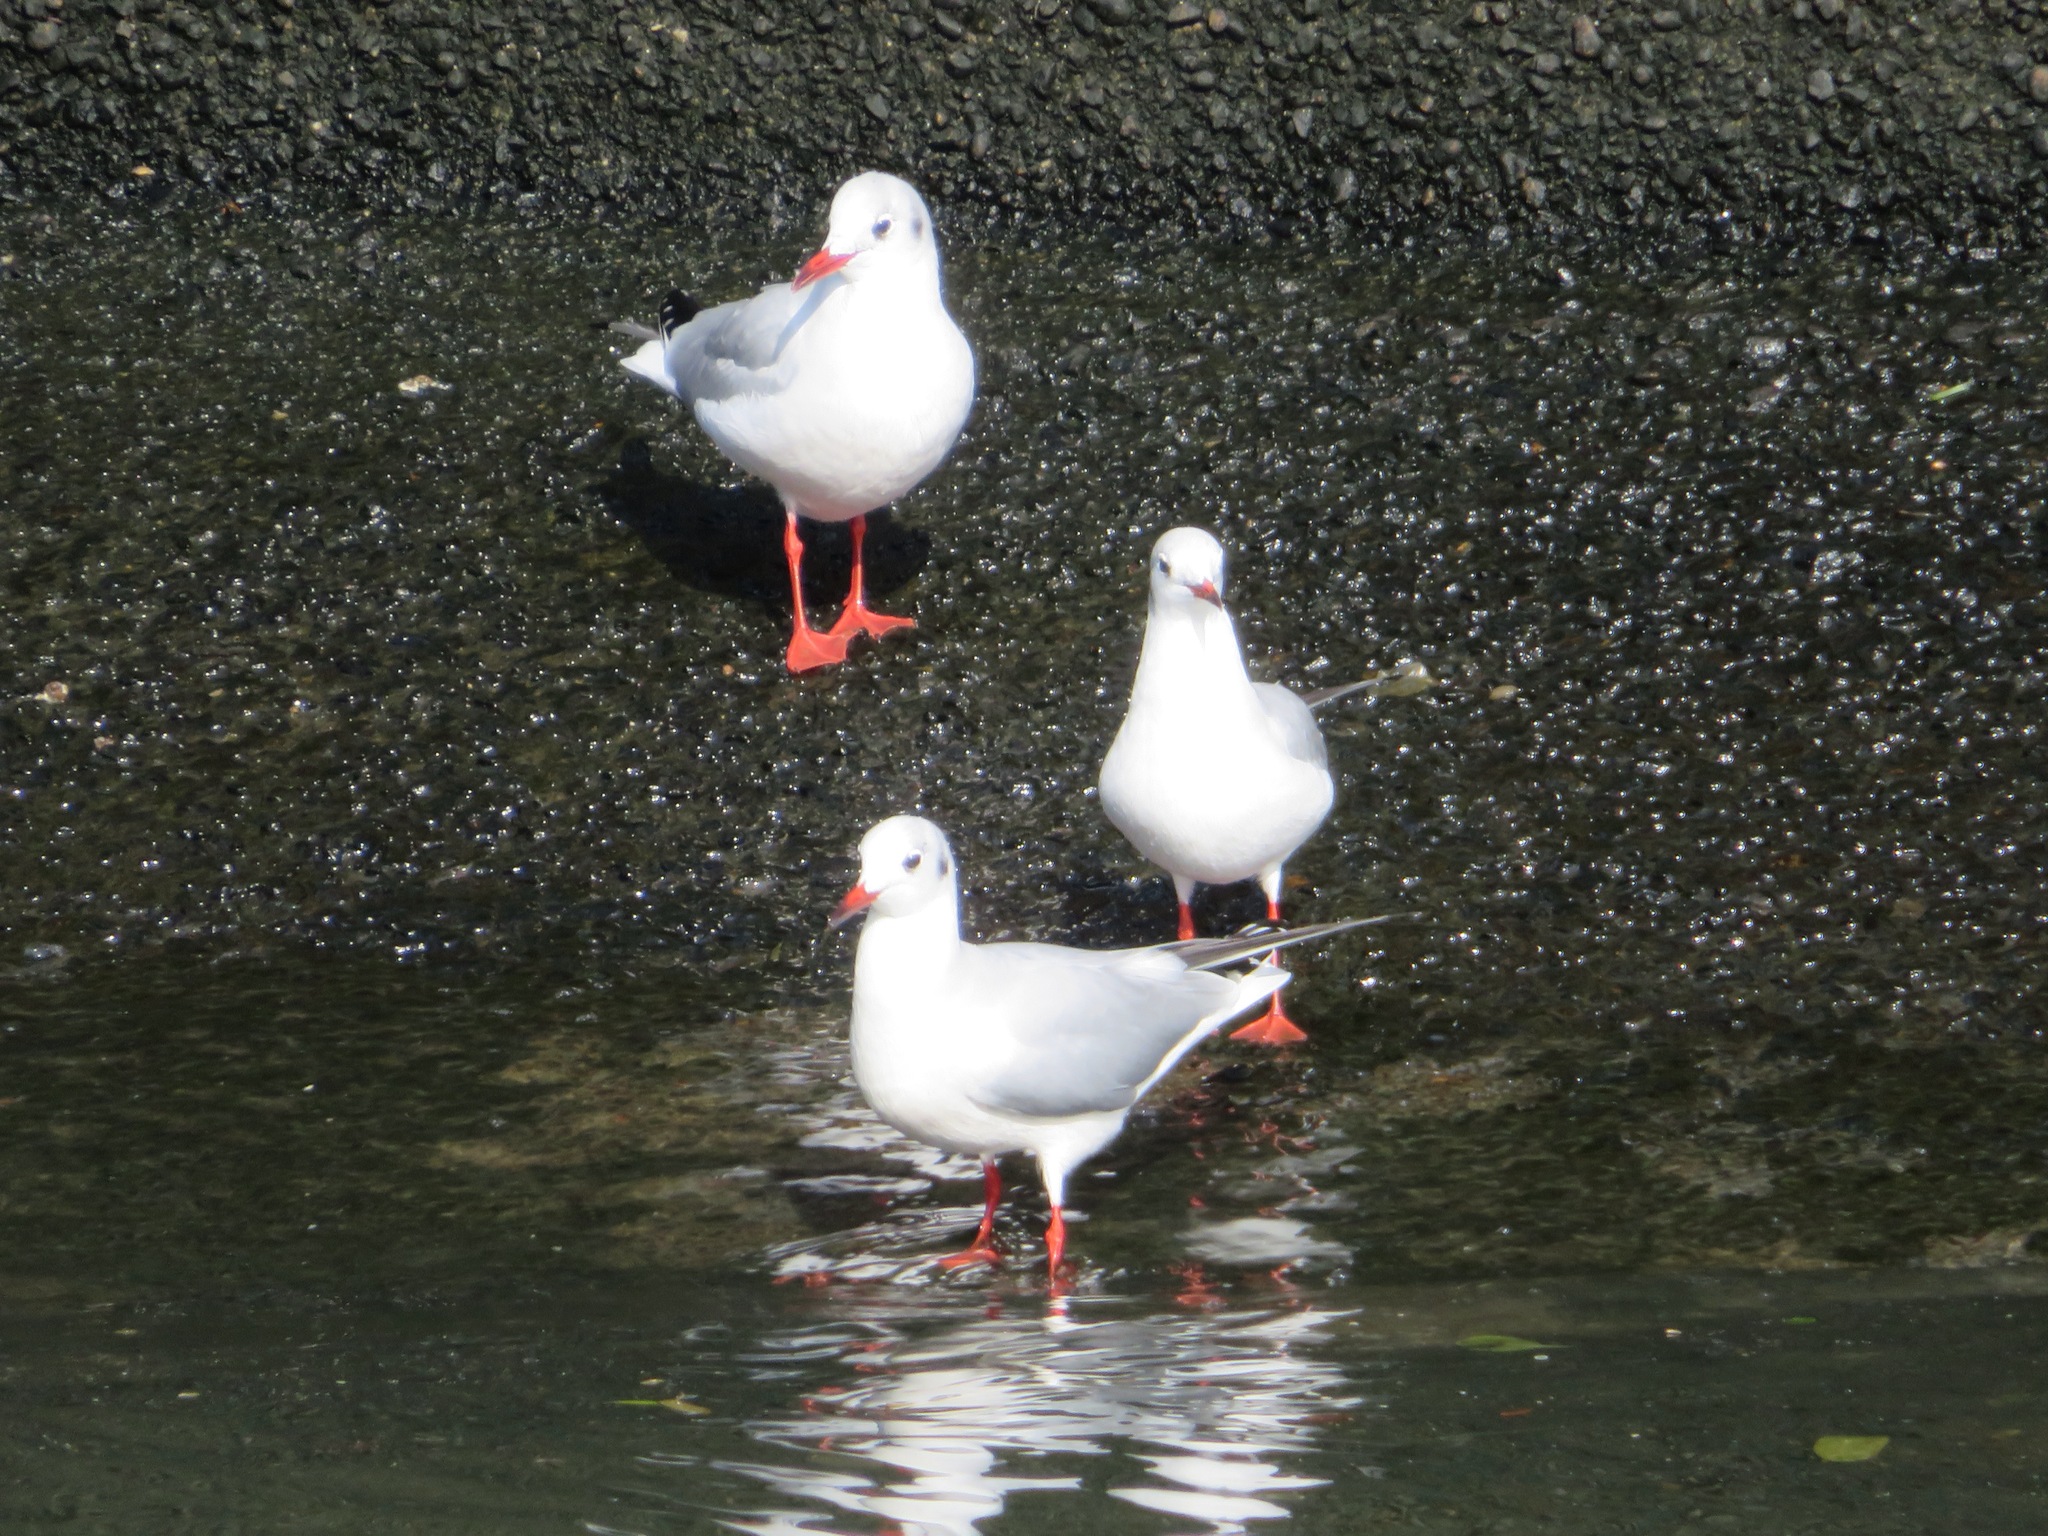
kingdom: Animalia
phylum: Chordata
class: Aves
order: Charadriiformes
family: Laridae
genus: Chroicocephalus
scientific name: Chroicocephalus ridibundus
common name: Black-headed gull
